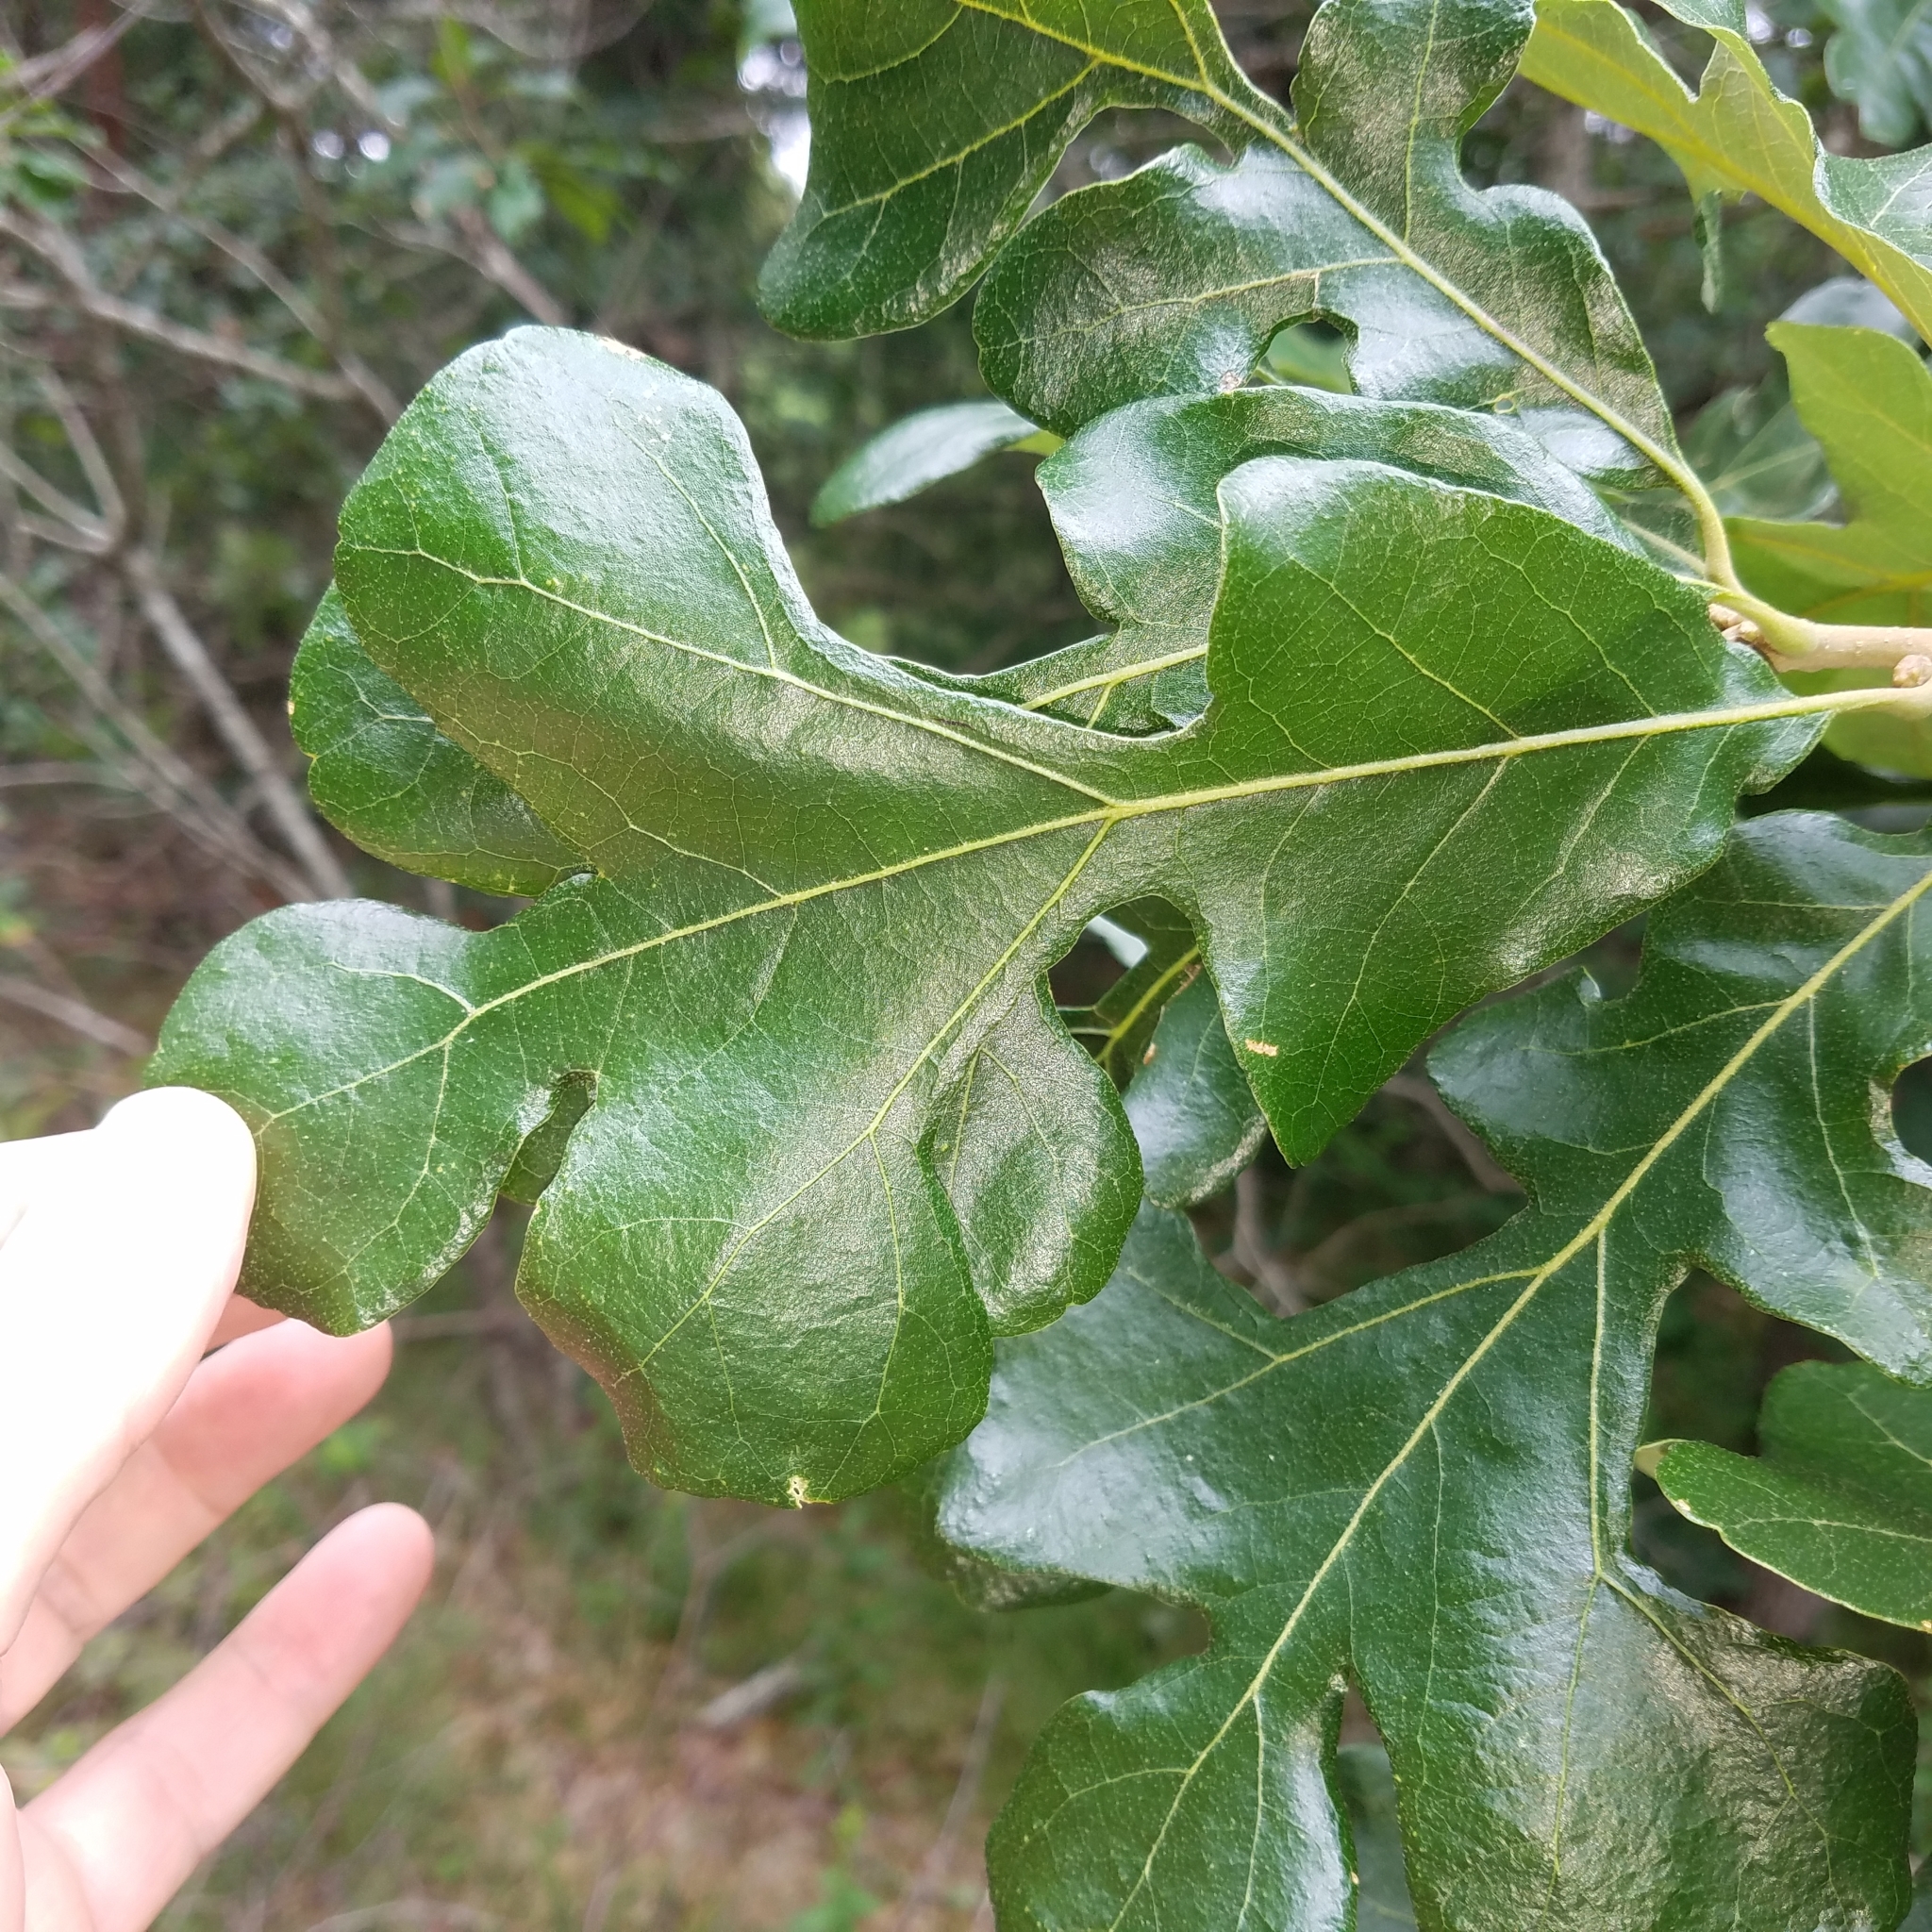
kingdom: Plantae
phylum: Tracheophyta
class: Magnoliopsida
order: Fagales
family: Fagaceae
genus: Quercus
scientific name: Quercus stellata
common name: Post oak
